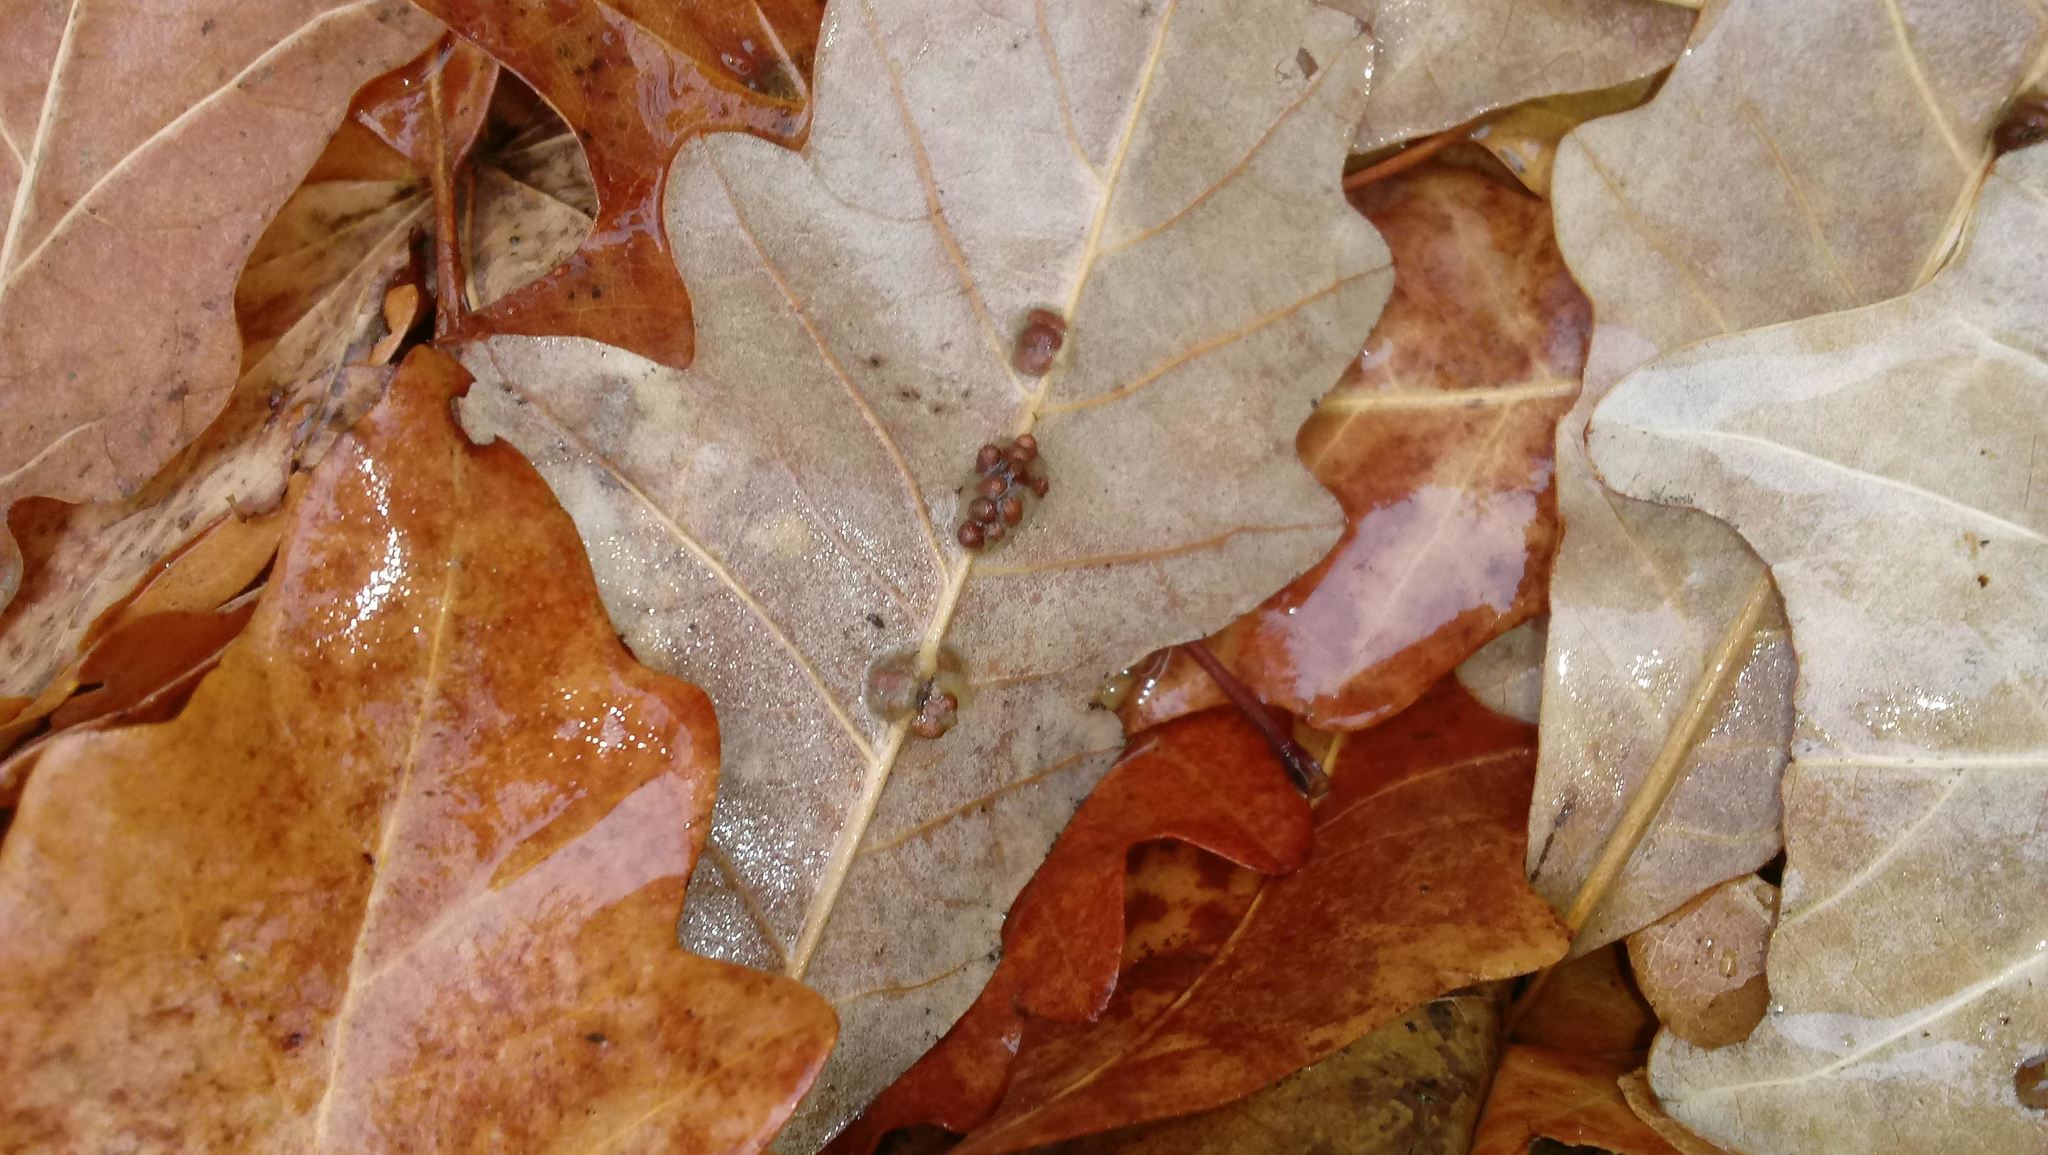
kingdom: Animalia
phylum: Arthropoda
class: Insecta
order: Hymenoptera
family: Cynipidae
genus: Andricus
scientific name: Andricus Druon ignotum
